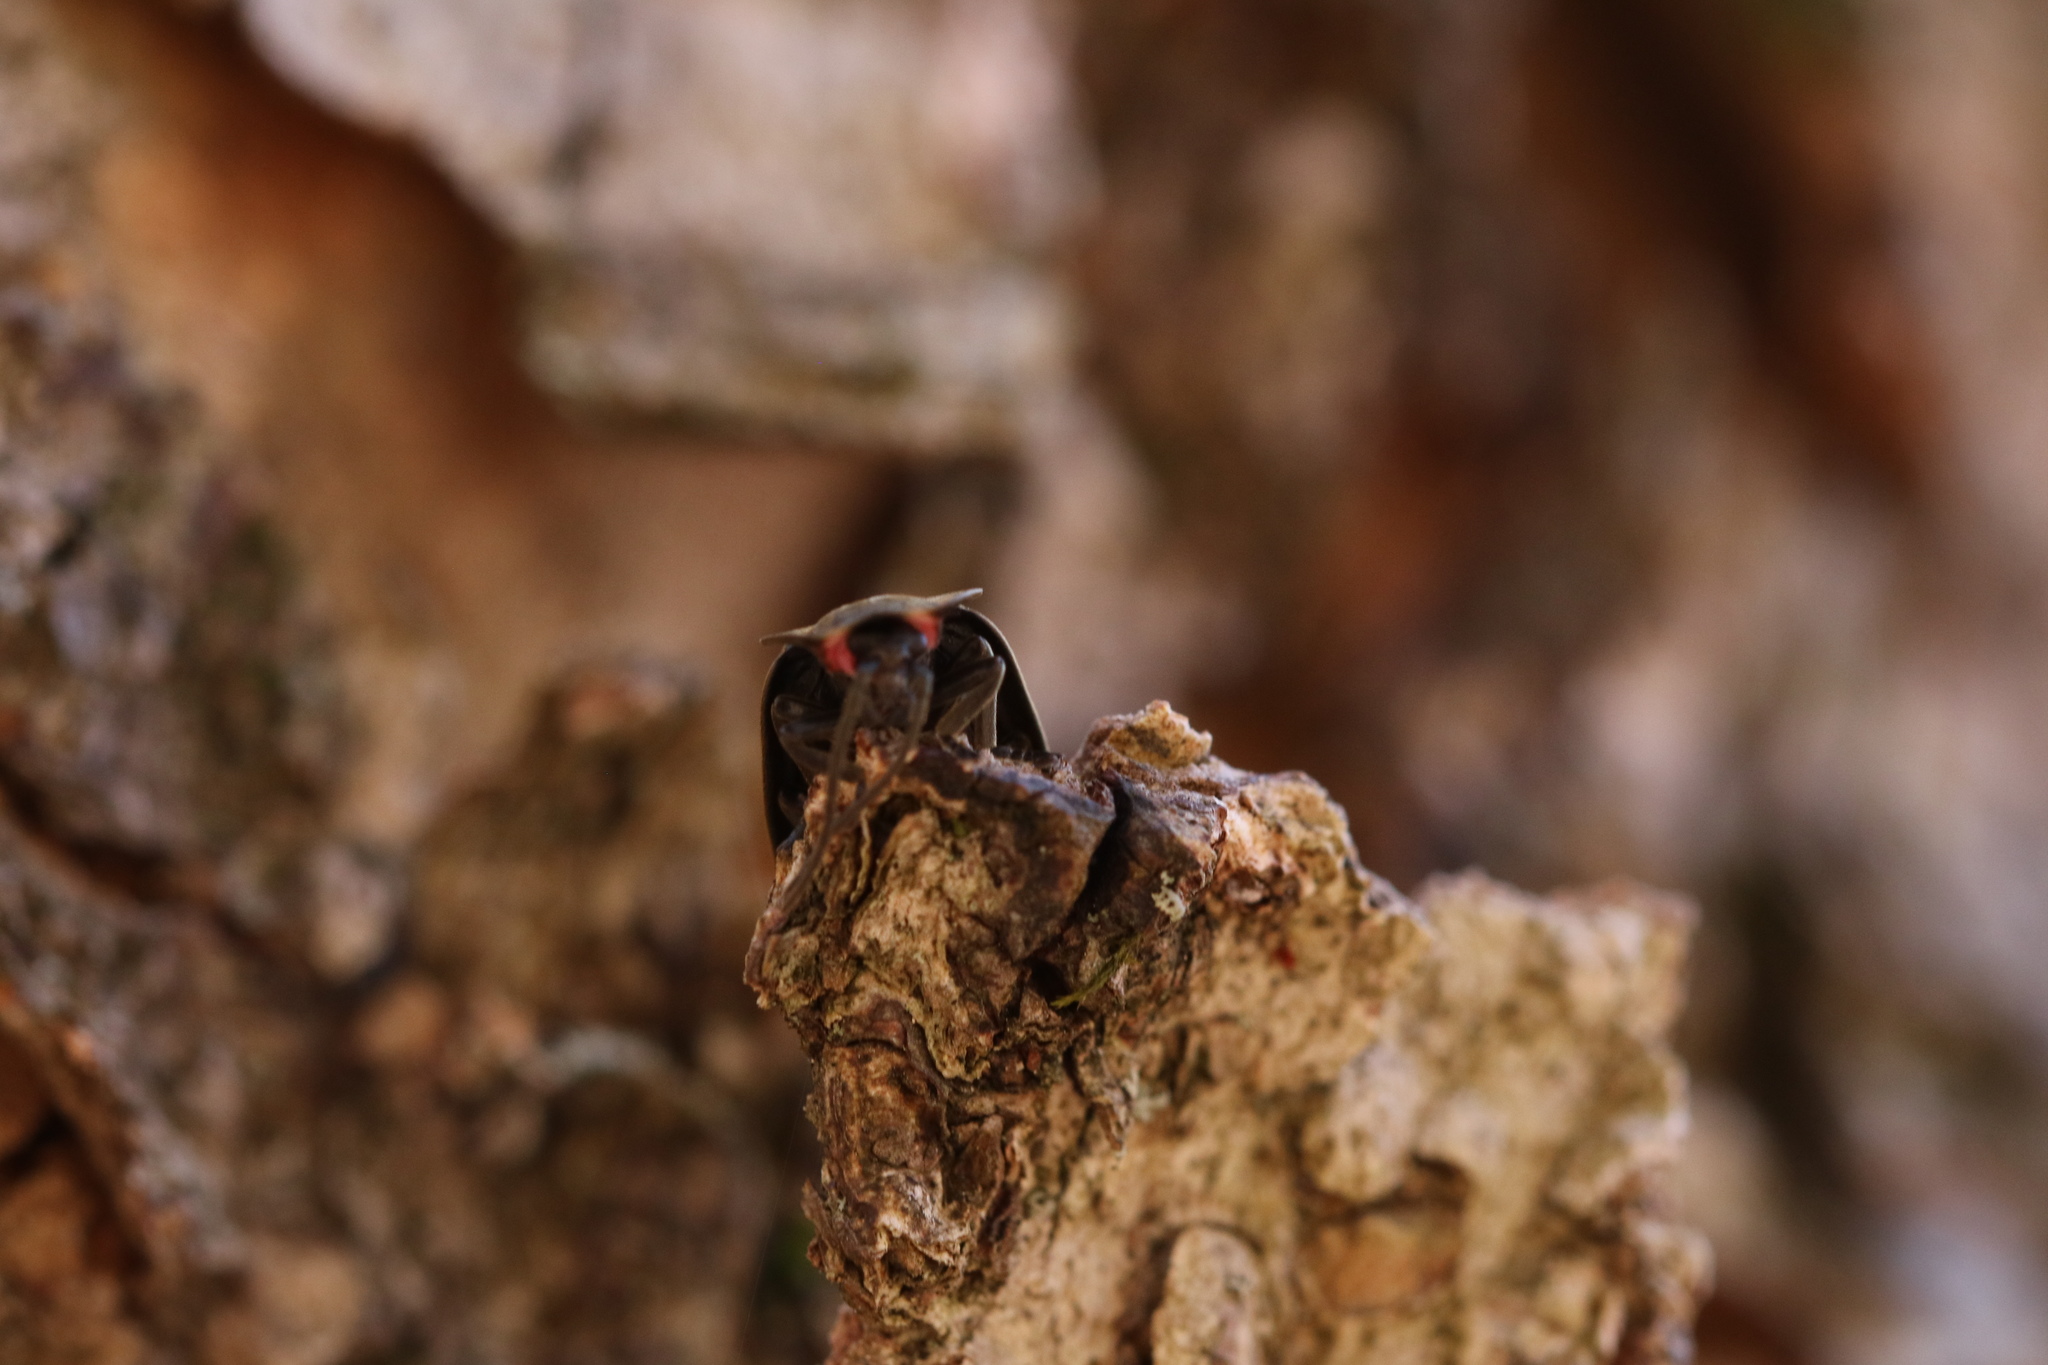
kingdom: Animalia
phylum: Arthropoda
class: Insecta
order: Coleoptera
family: Lampyridae
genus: Photinus
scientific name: Photinus corrusca
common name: Winter firefly
